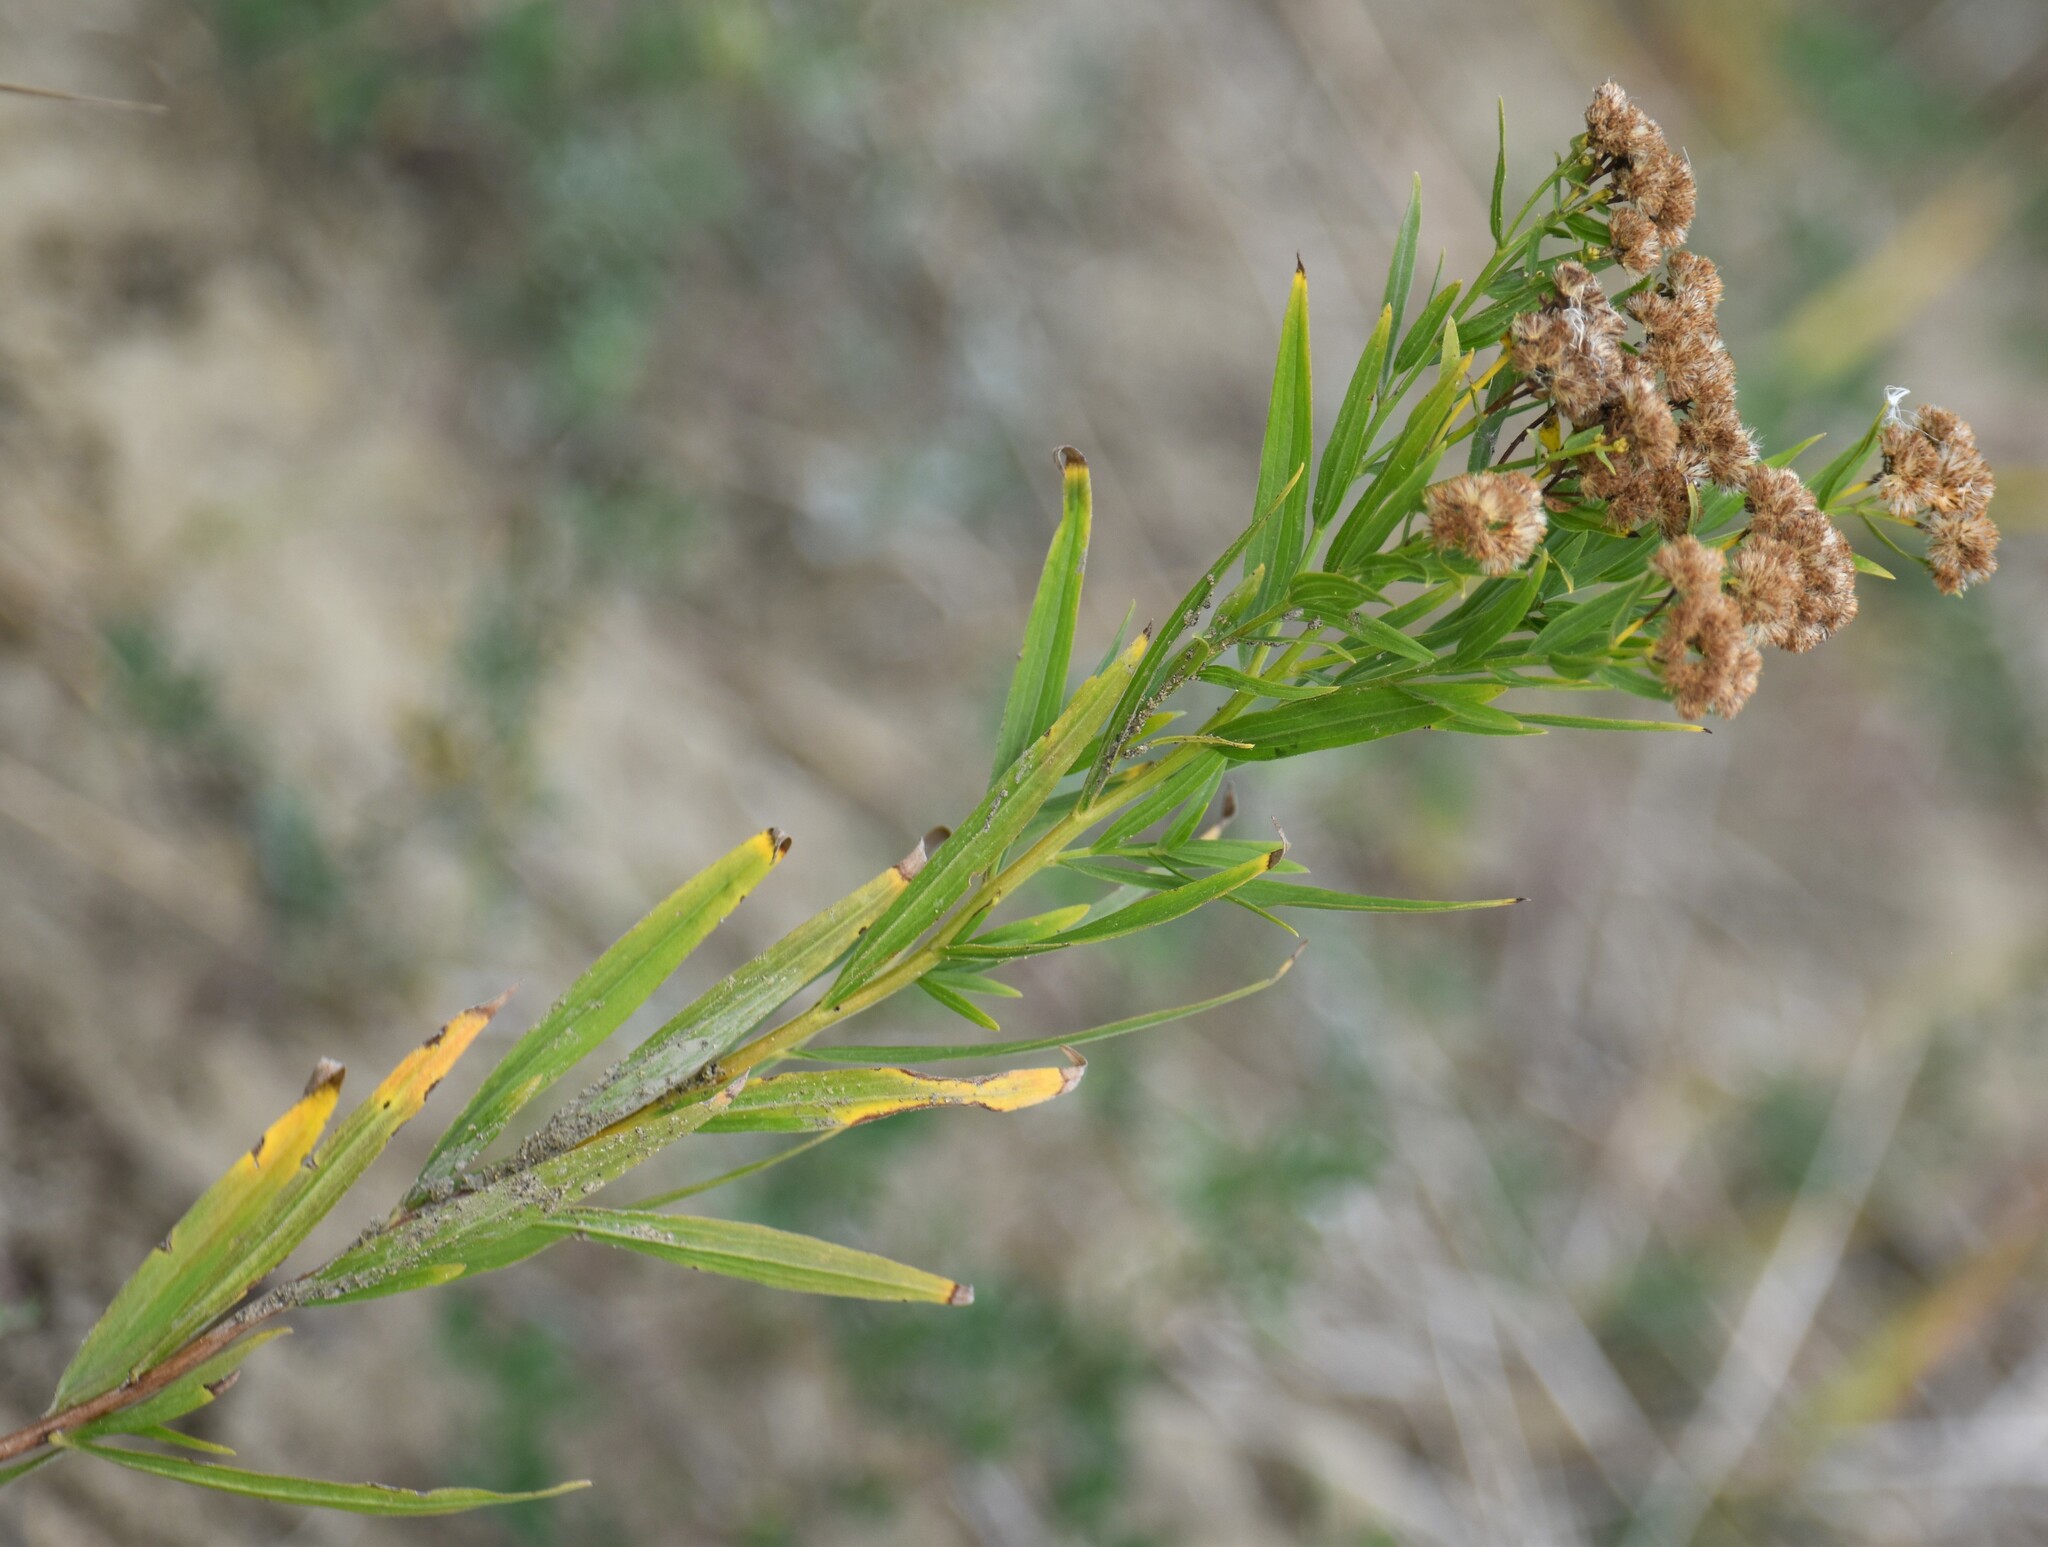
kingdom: Plantae
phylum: Tracheophyta
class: Magnoliopsida
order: Asterales
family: Asteraceae
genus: Euthamia
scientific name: Euthamia graminifolia
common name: Common goldentop
